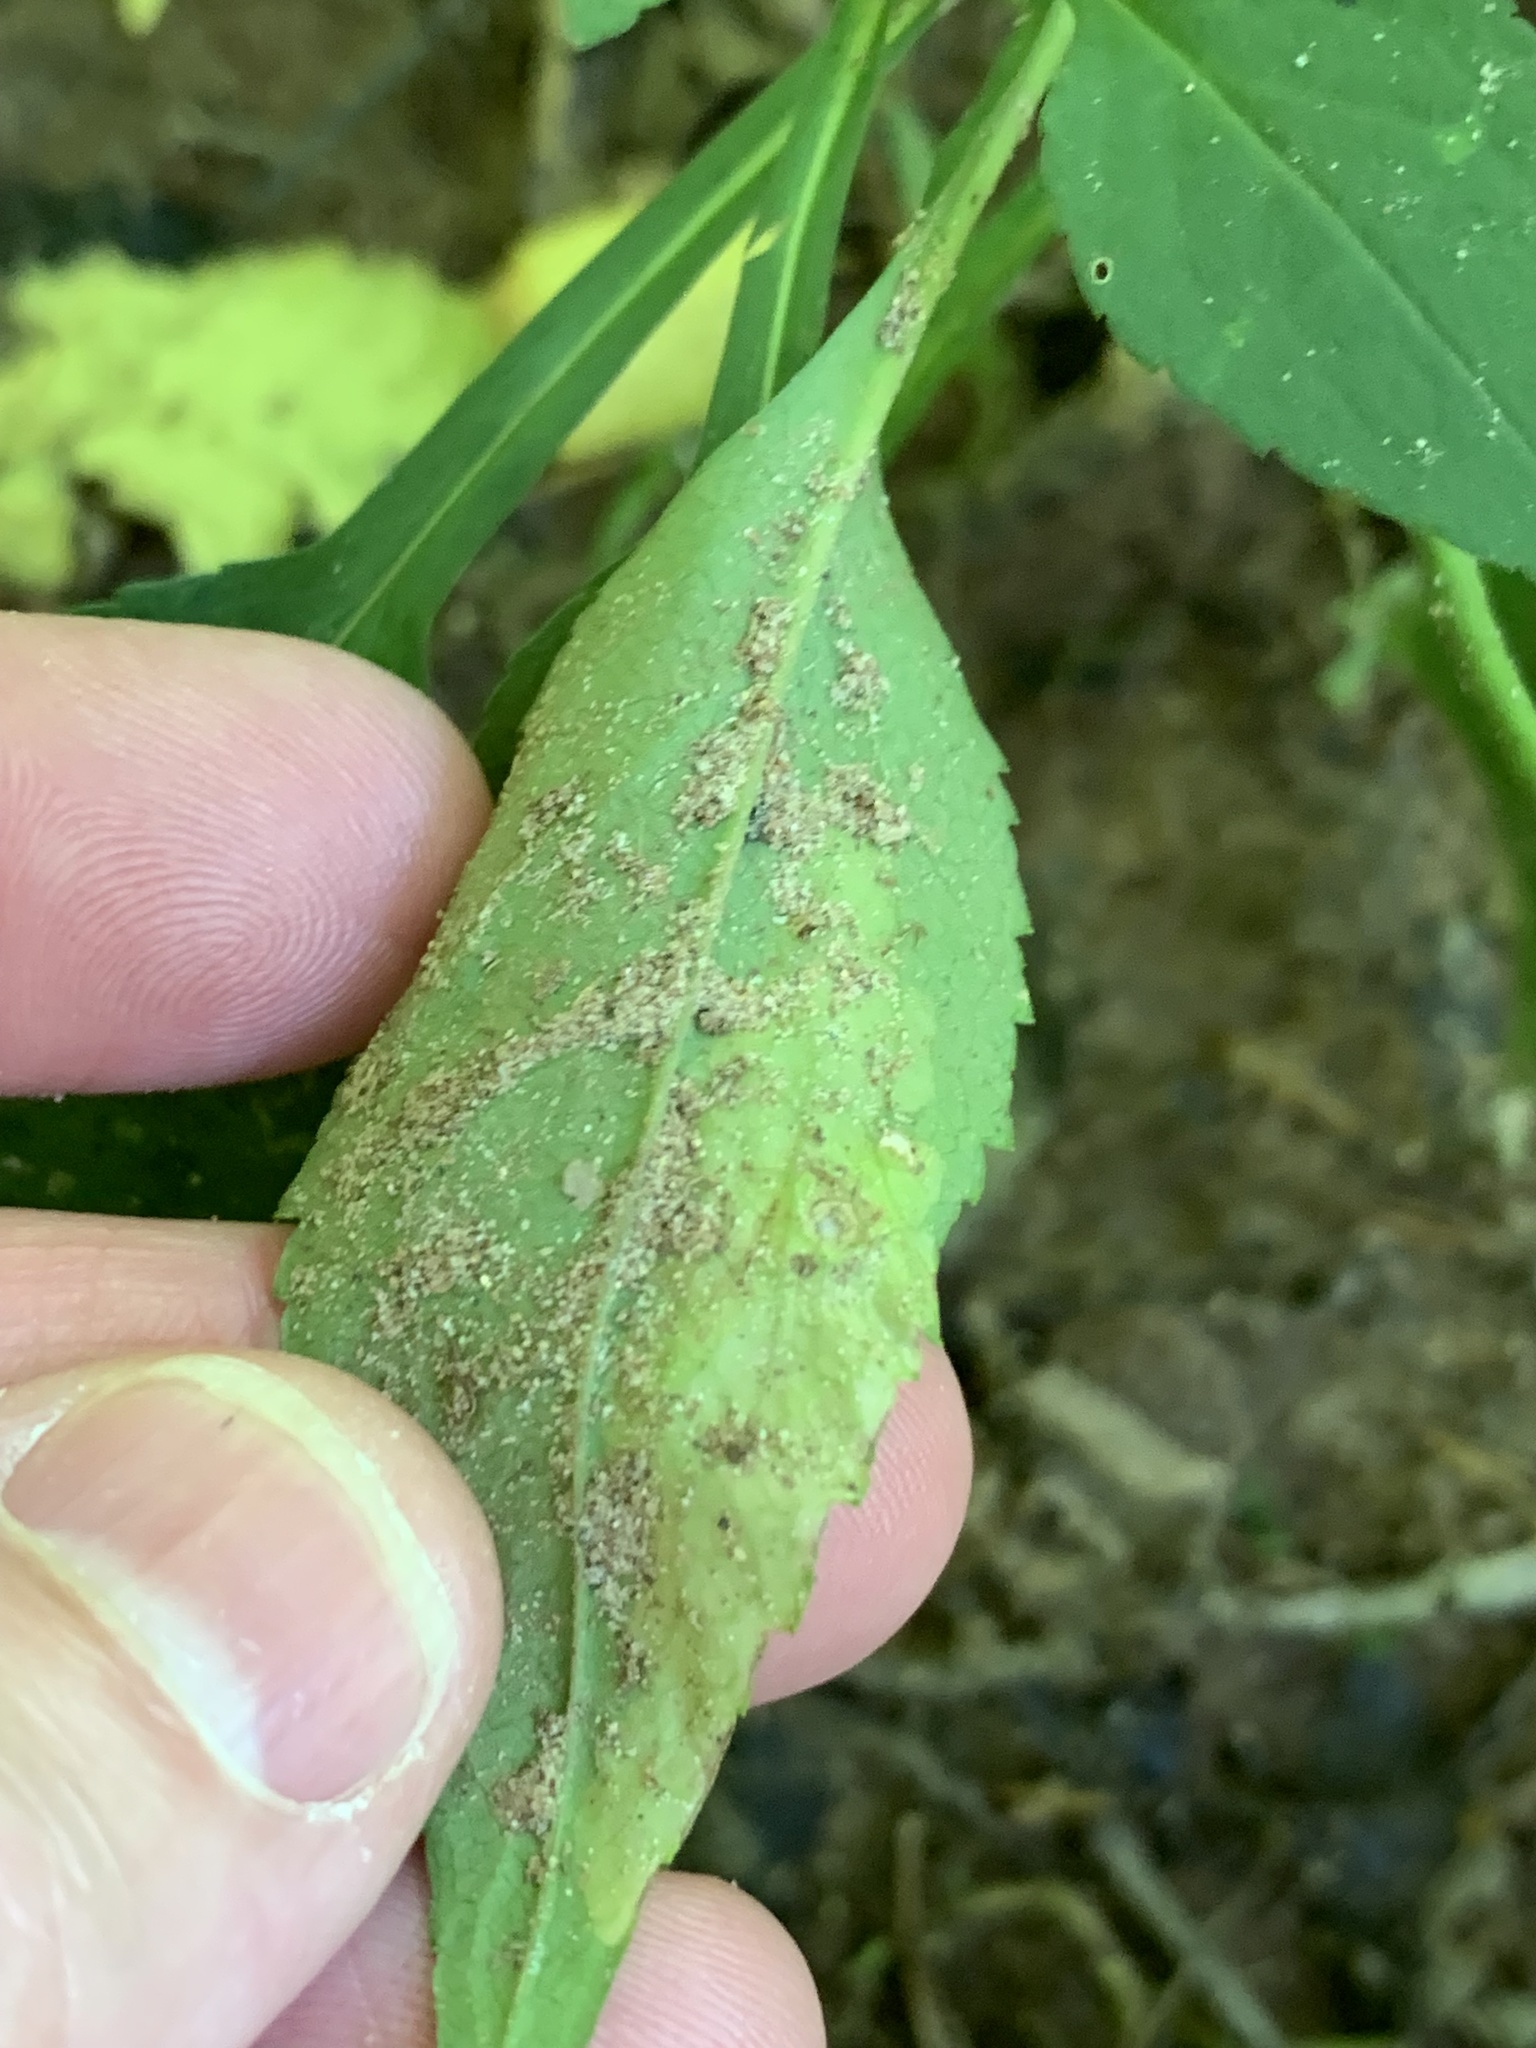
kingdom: Animalia
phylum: Arthropoda
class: Insecta
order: Lepidoptera
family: Tischeriidae
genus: Astrotischeria
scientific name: Astrotischeria astericola
